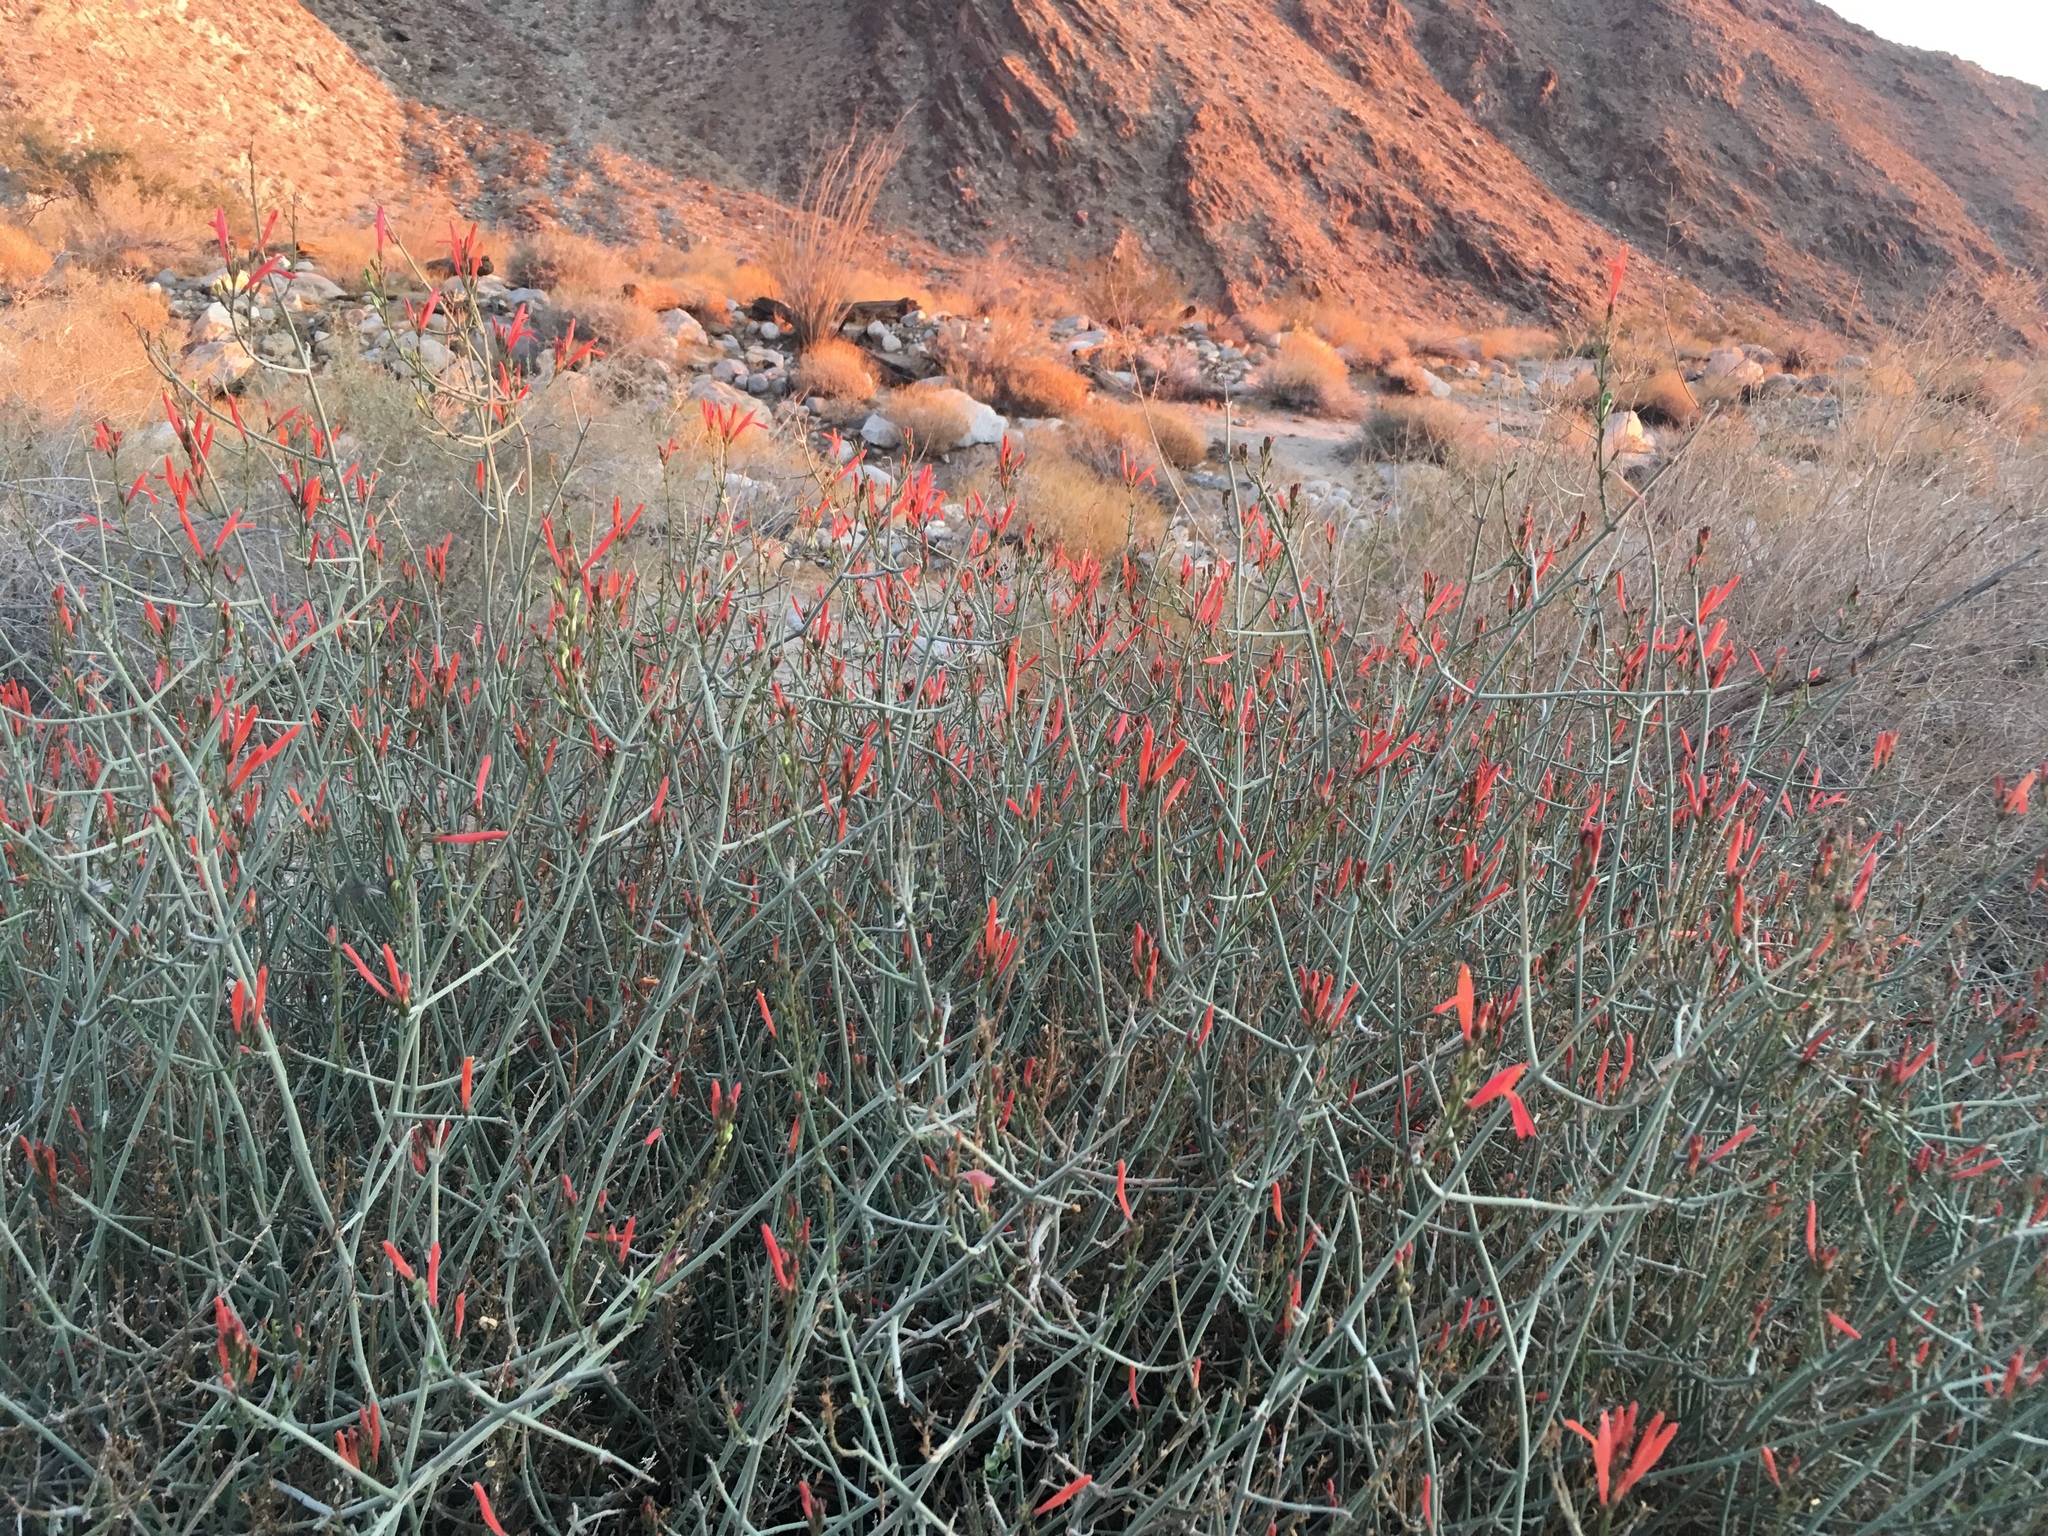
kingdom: Plantae
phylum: Tracheophyta
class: Magnoliopsida
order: Lamiales
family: Acanthaceae
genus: Justicia
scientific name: Justicia californica
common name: Chuparosa-honeysuckle
